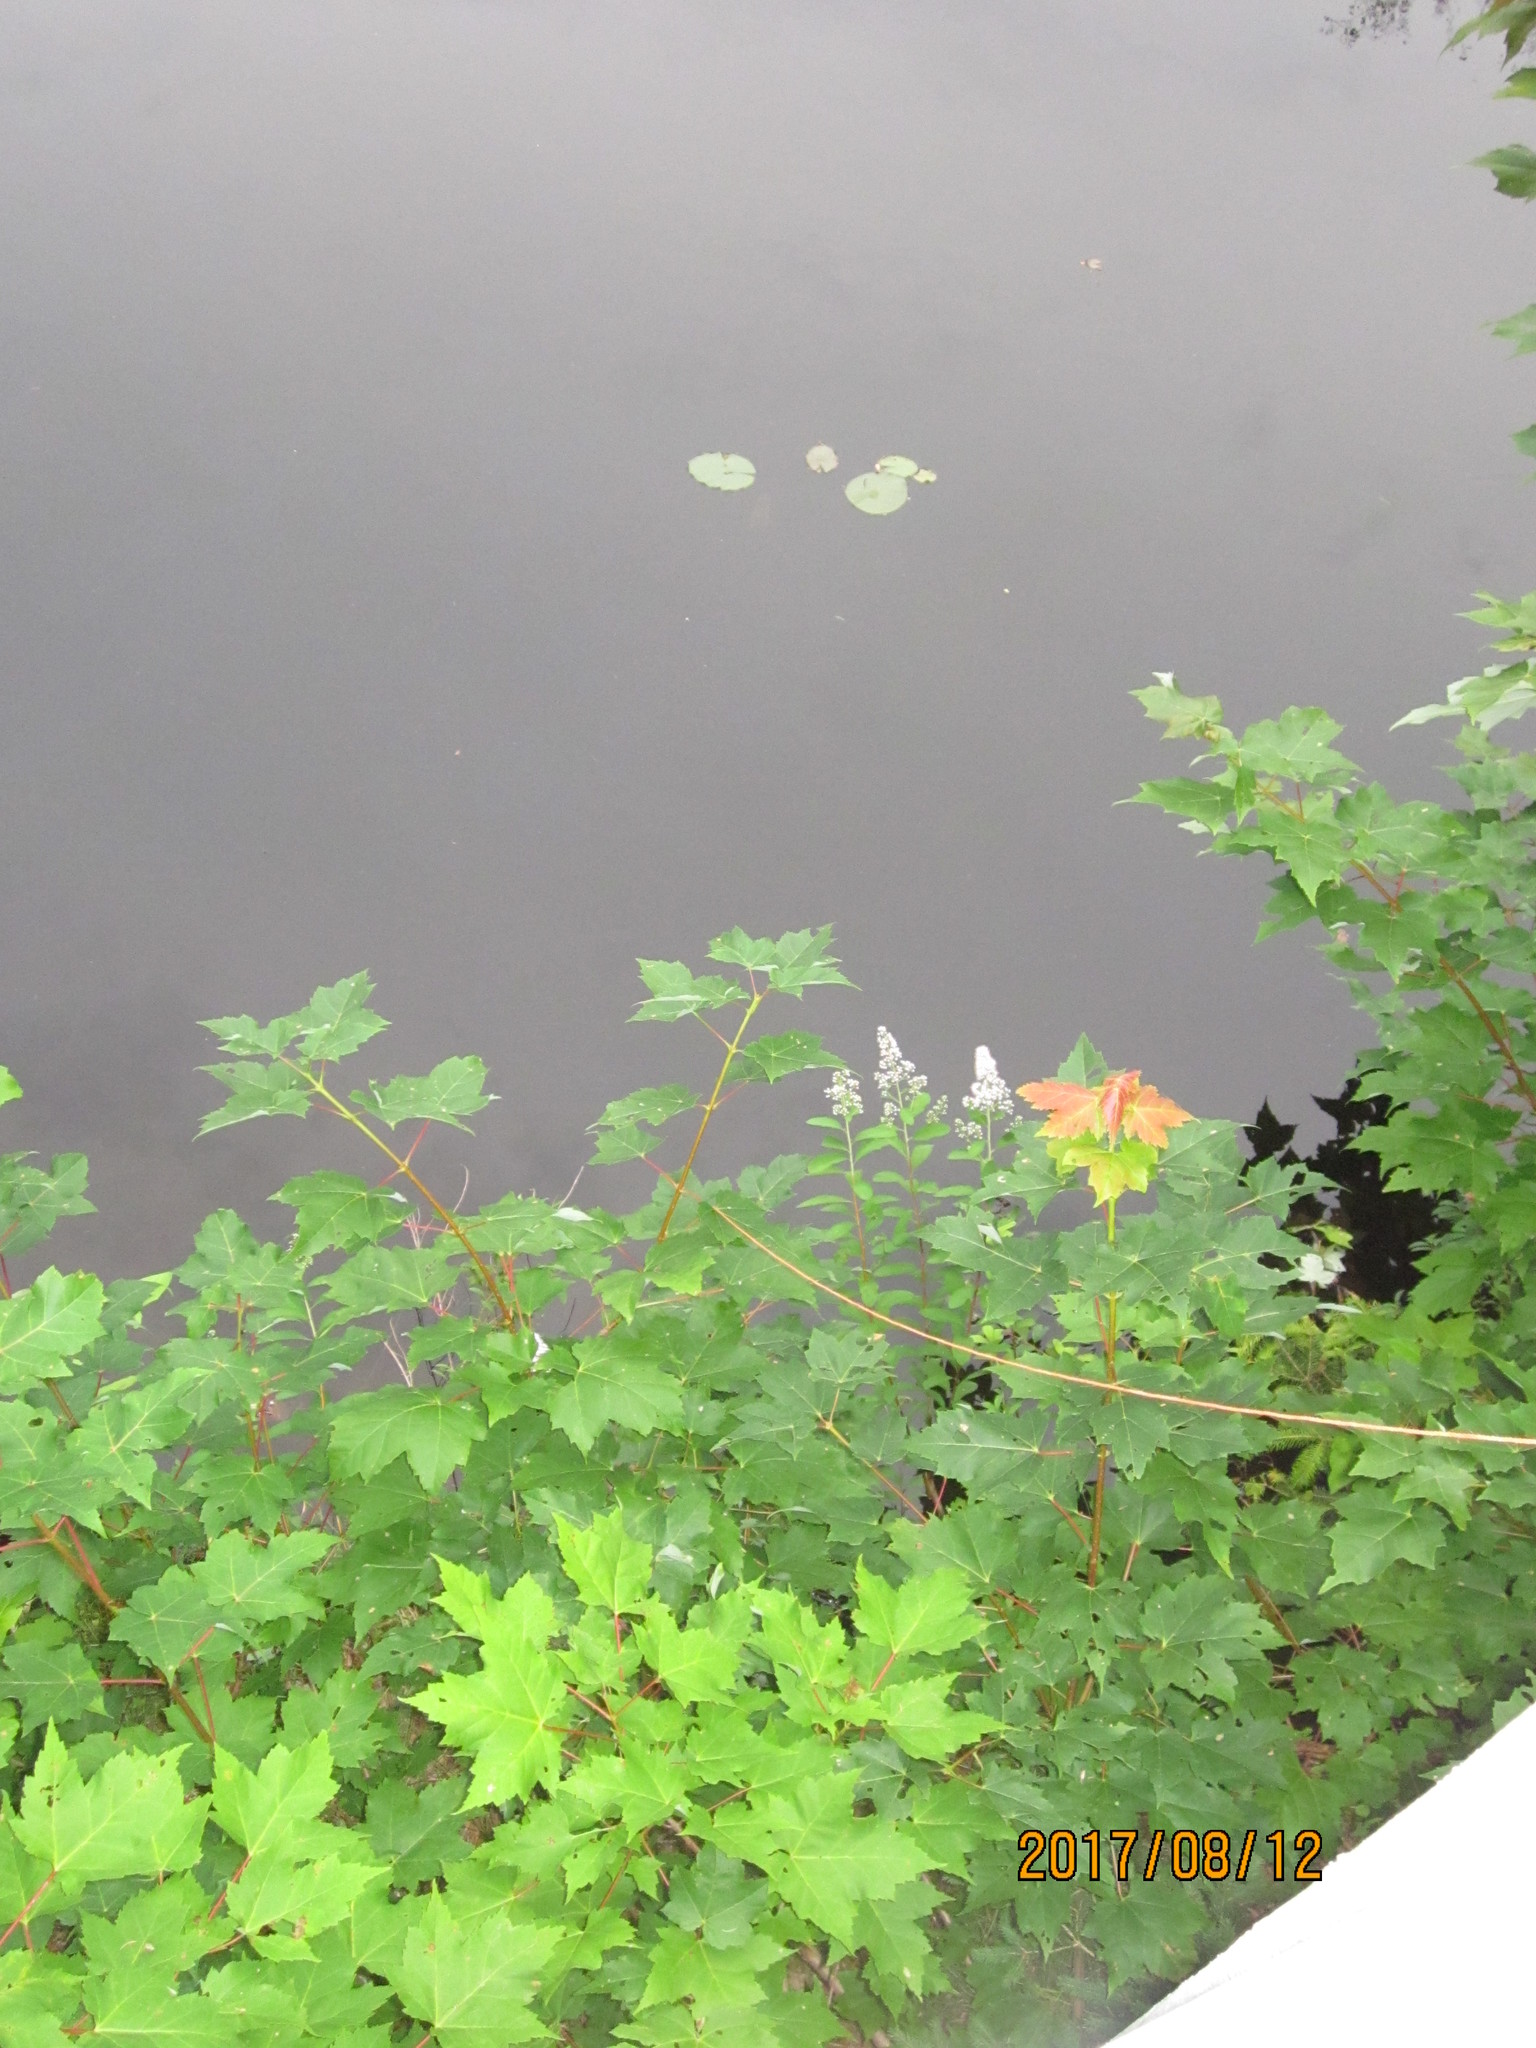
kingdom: Plantae
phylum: Tracheophyta
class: Magnoliopsida
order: Rosales
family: Rosaceae
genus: Spiraea
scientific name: Spiraea alba
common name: Pale bridewort
